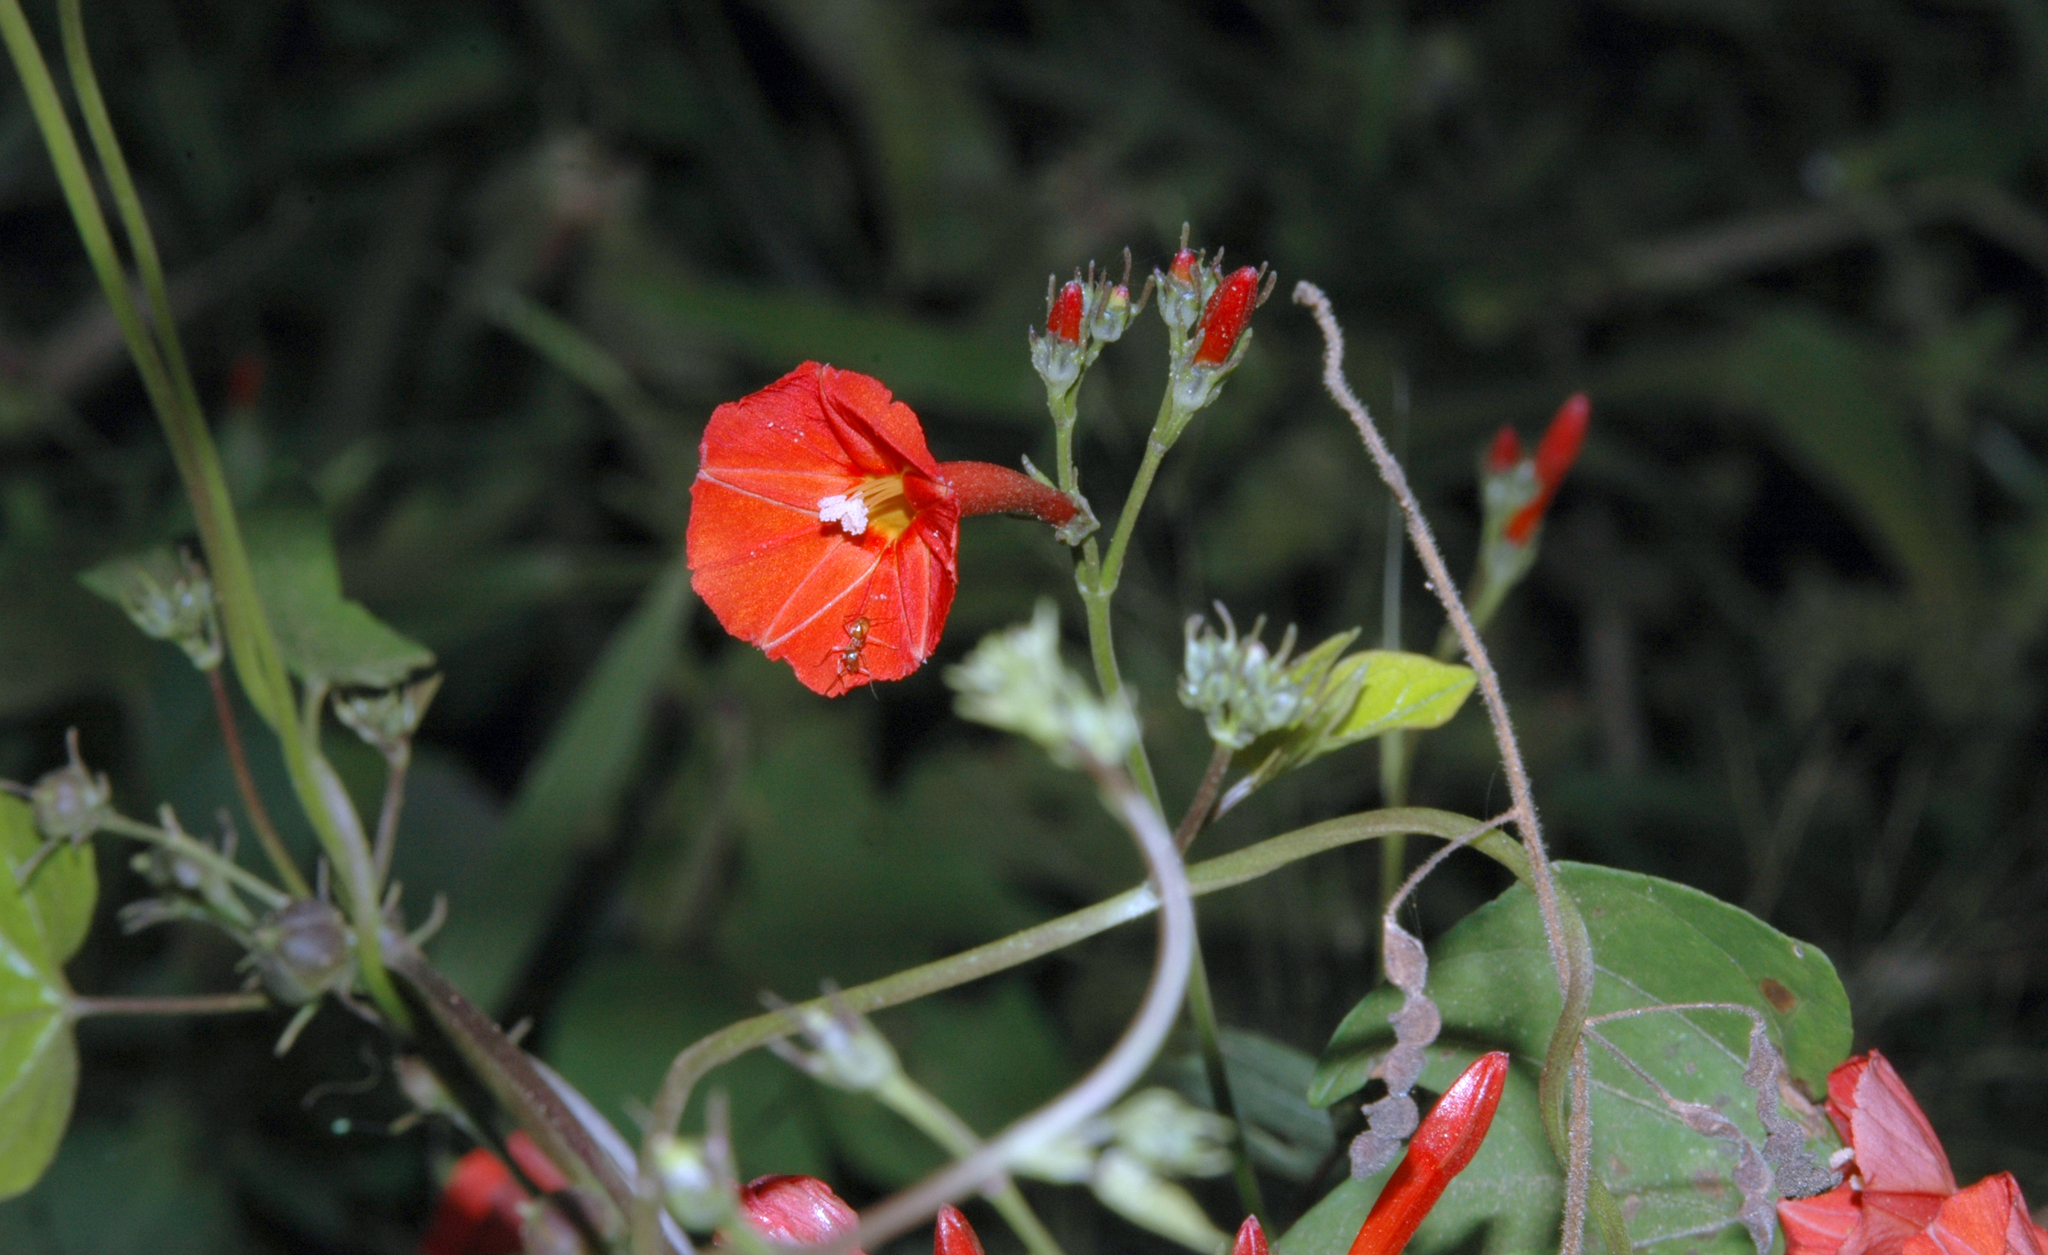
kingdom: Plantae
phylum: Tracheophyta
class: Magnoliopsida
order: Solanales
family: Convolvulaceae
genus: Ipomoea
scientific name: Ipomoea hederifolia
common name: Ivy-leaf morning-glory
